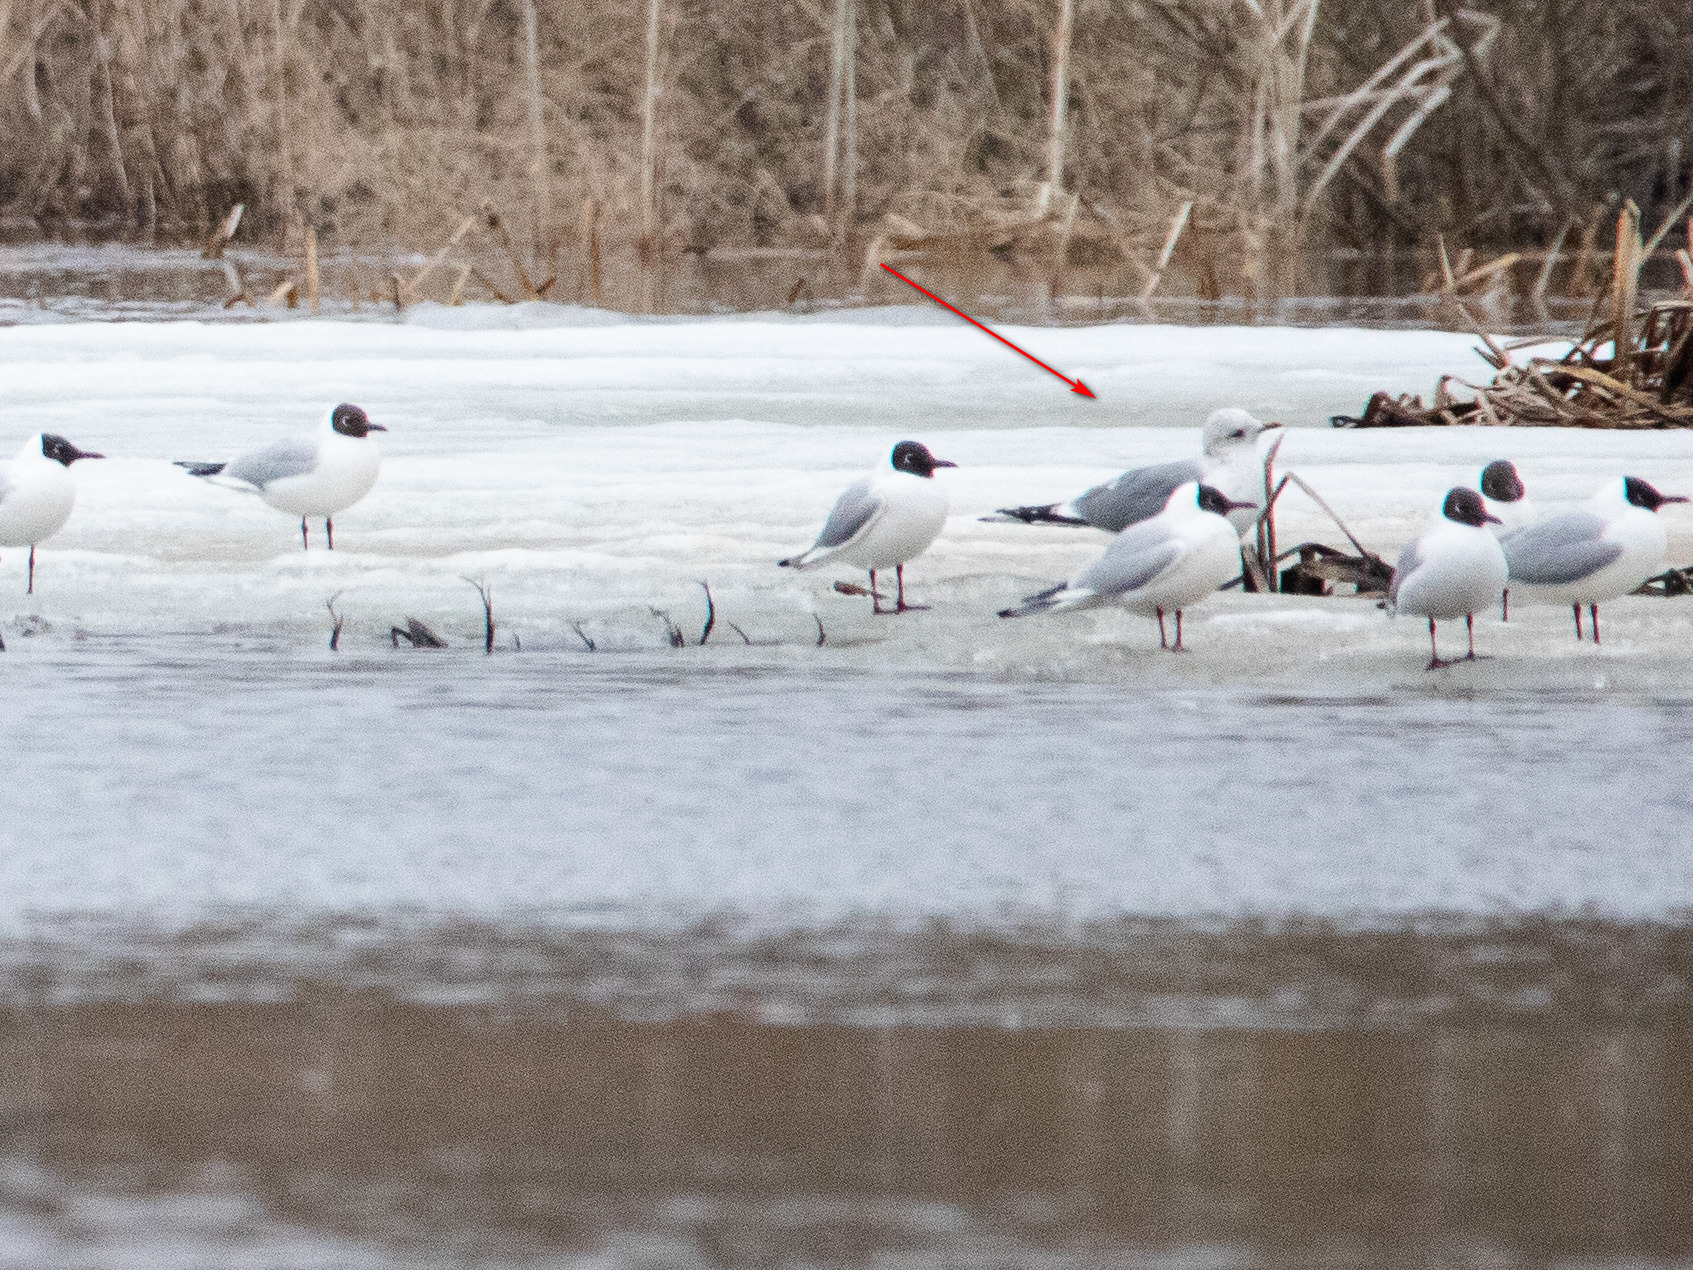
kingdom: Animalia
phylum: Chordata
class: Aves
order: Charadriiformes
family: Laridae
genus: Larus
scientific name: Larus canus
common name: Mew gull
